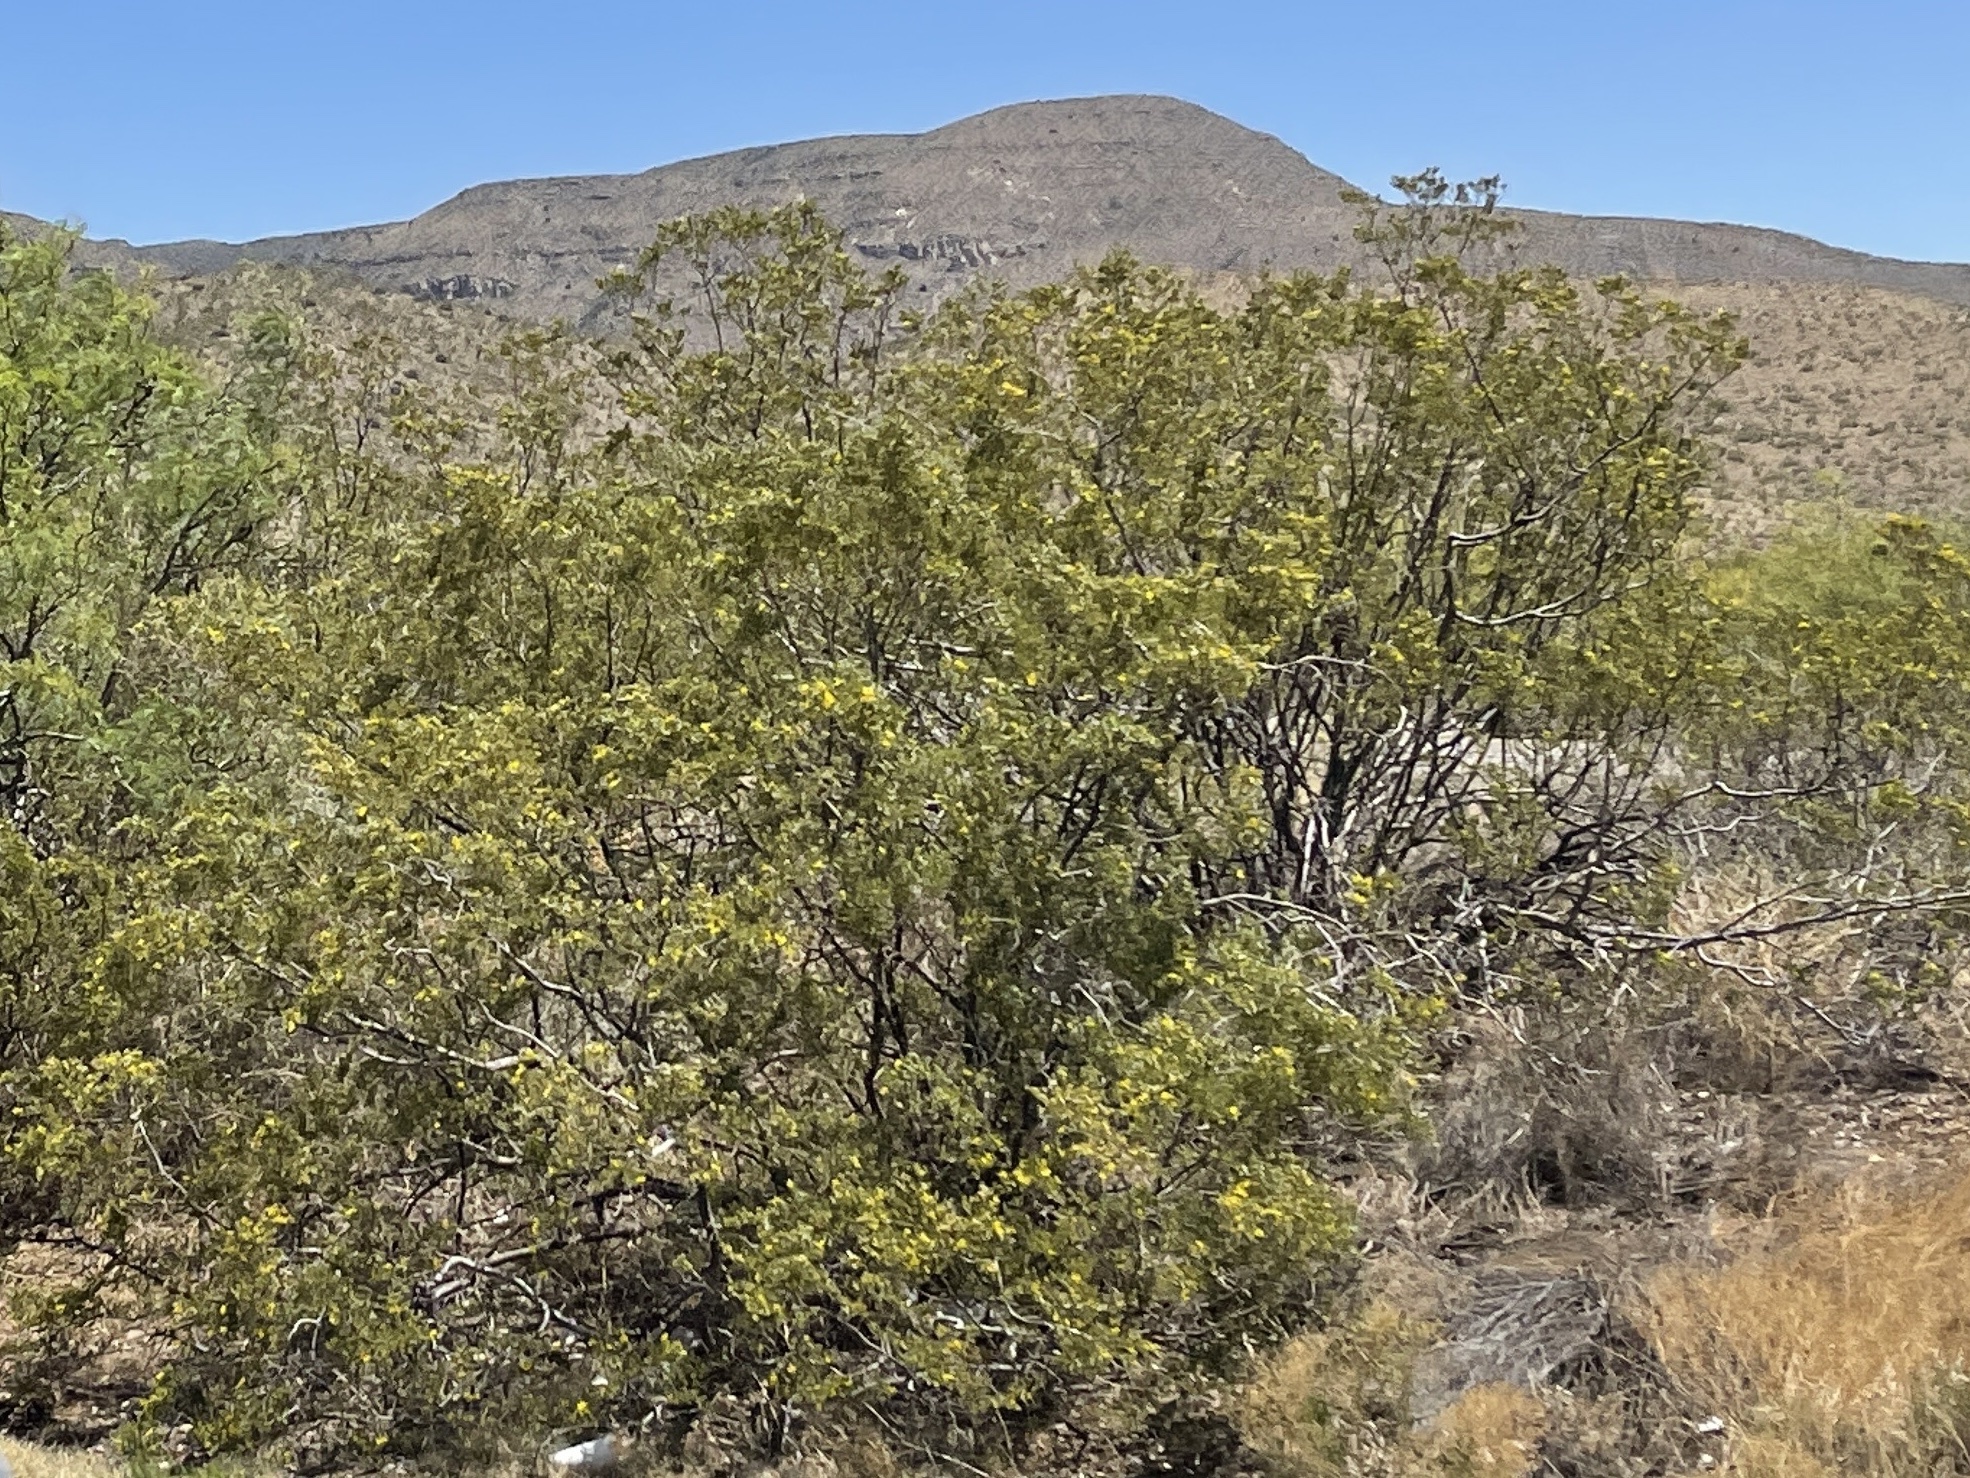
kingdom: Plantae
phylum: Tracheophyta
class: Magnoliopsida
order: Zygophyllales
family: Zygophyllaceae
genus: Larrea
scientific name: Larrea tridentata
